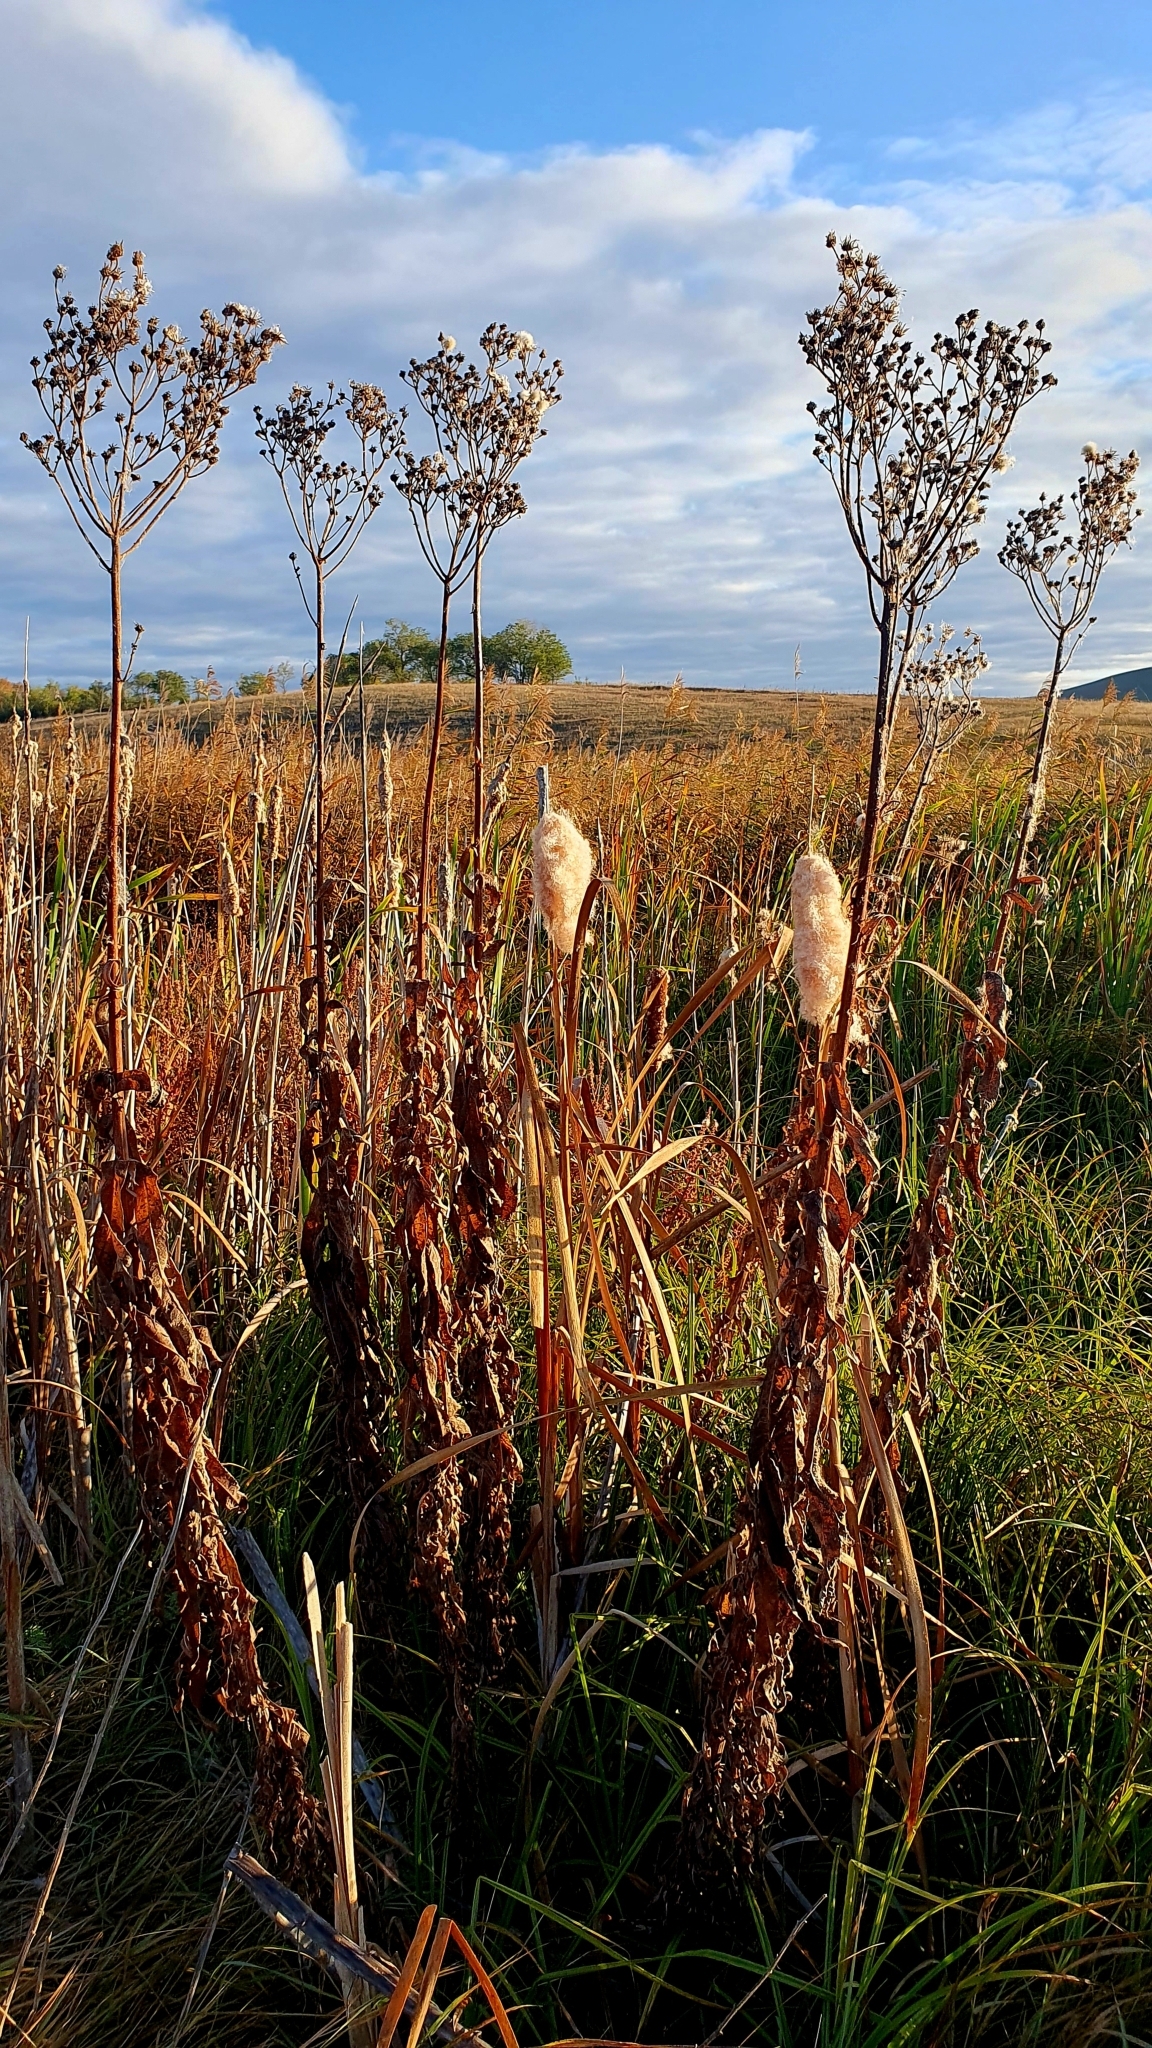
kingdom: Plantae
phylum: Tracheophyta
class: Magnoliopsida
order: Asterales
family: Asteraceae
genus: Sonchus
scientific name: Sonchus palustris
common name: Marsh sow-thistle
